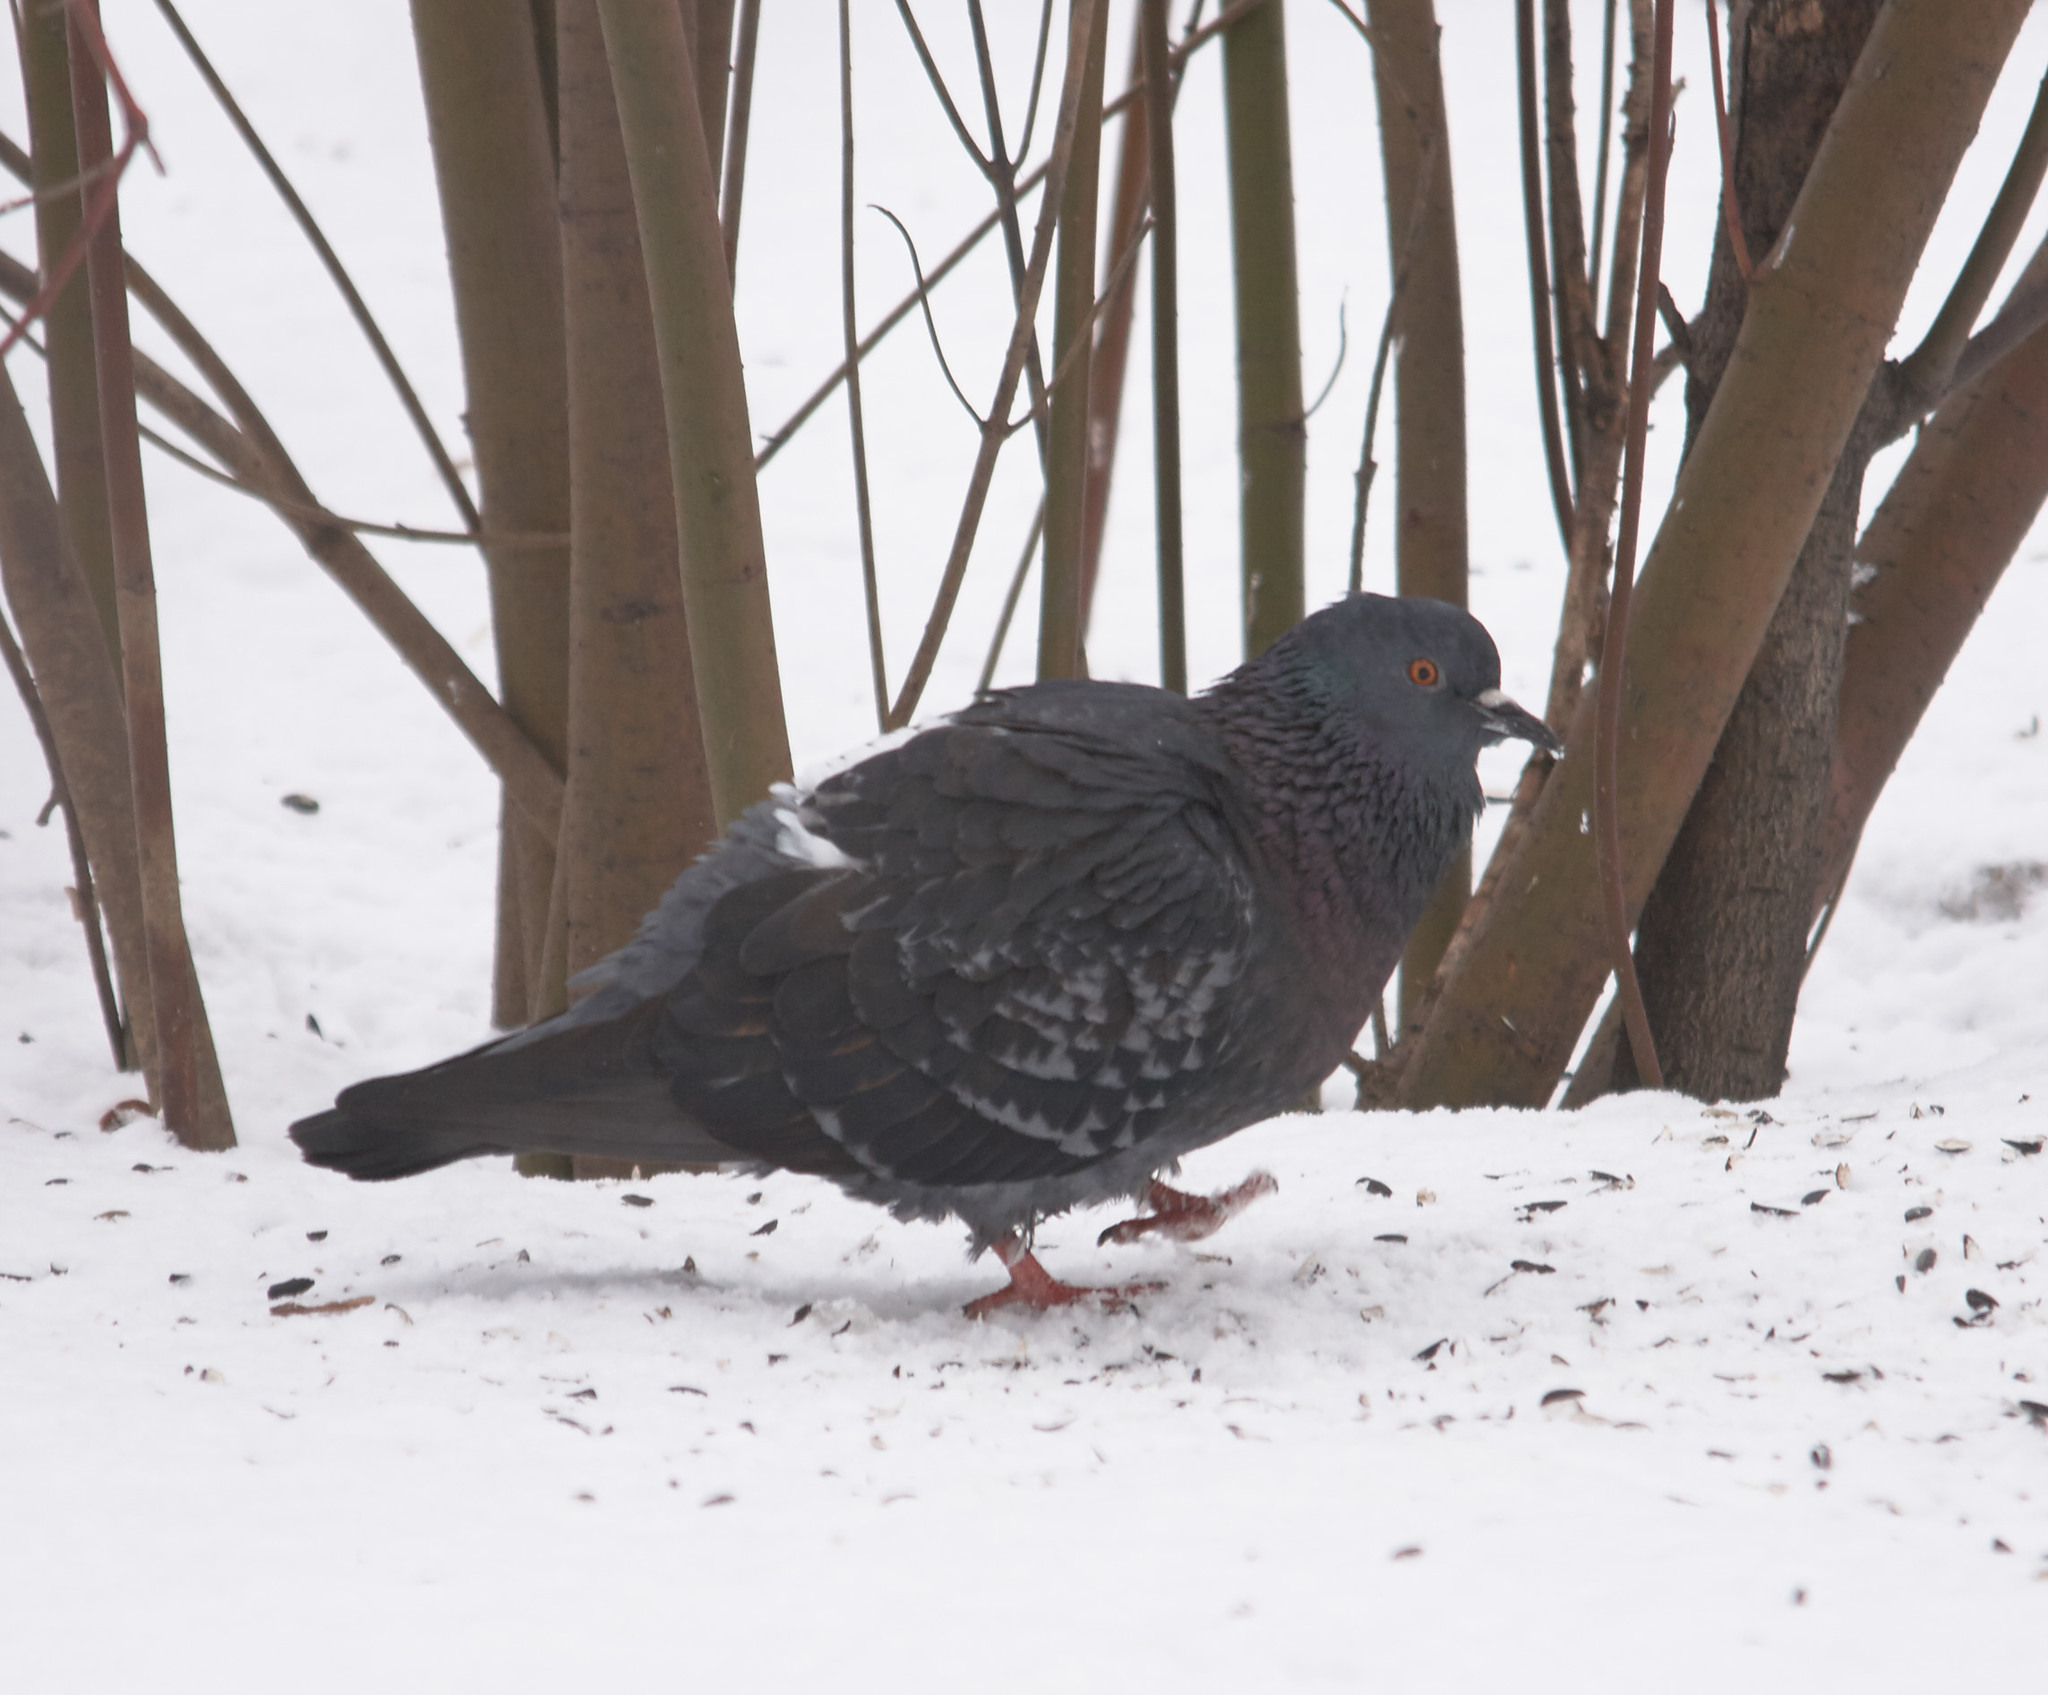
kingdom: Animalia
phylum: Chordata
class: Aves
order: Columbiformes
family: Columbidae
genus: Columba
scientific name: Columba livia
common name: Rock pigeon
